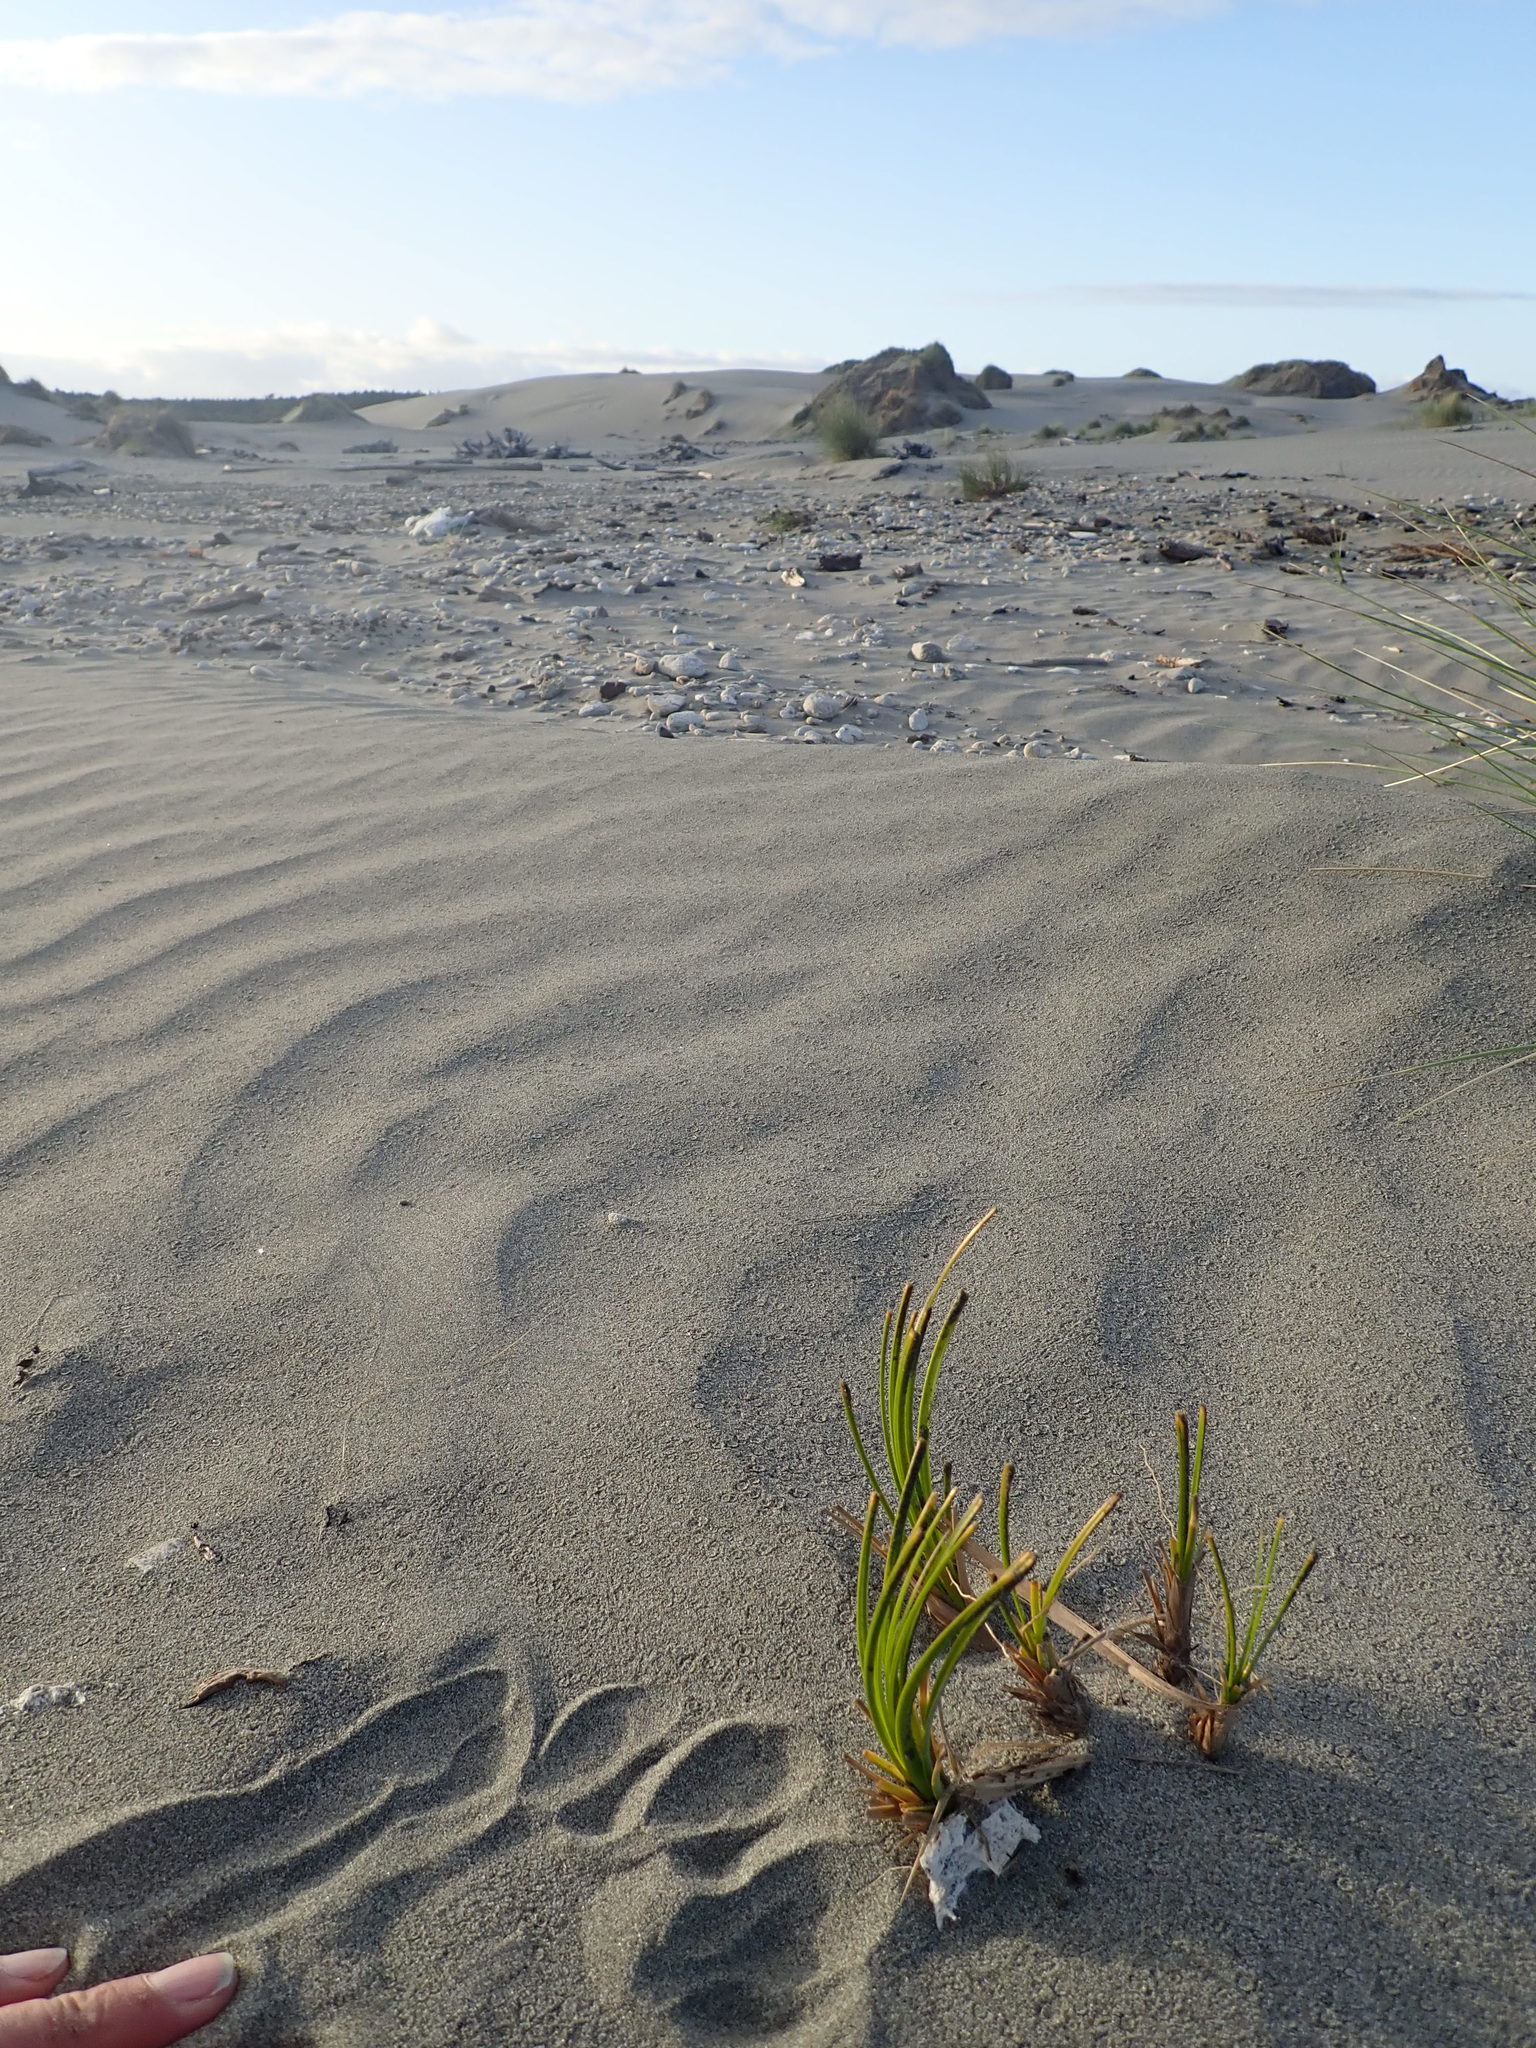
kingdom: Plantae
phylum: Tracheophyta
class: Liliopsida
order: Poales
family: Cyperaceae
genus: Ficinia
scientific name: Ficinia spiralis
